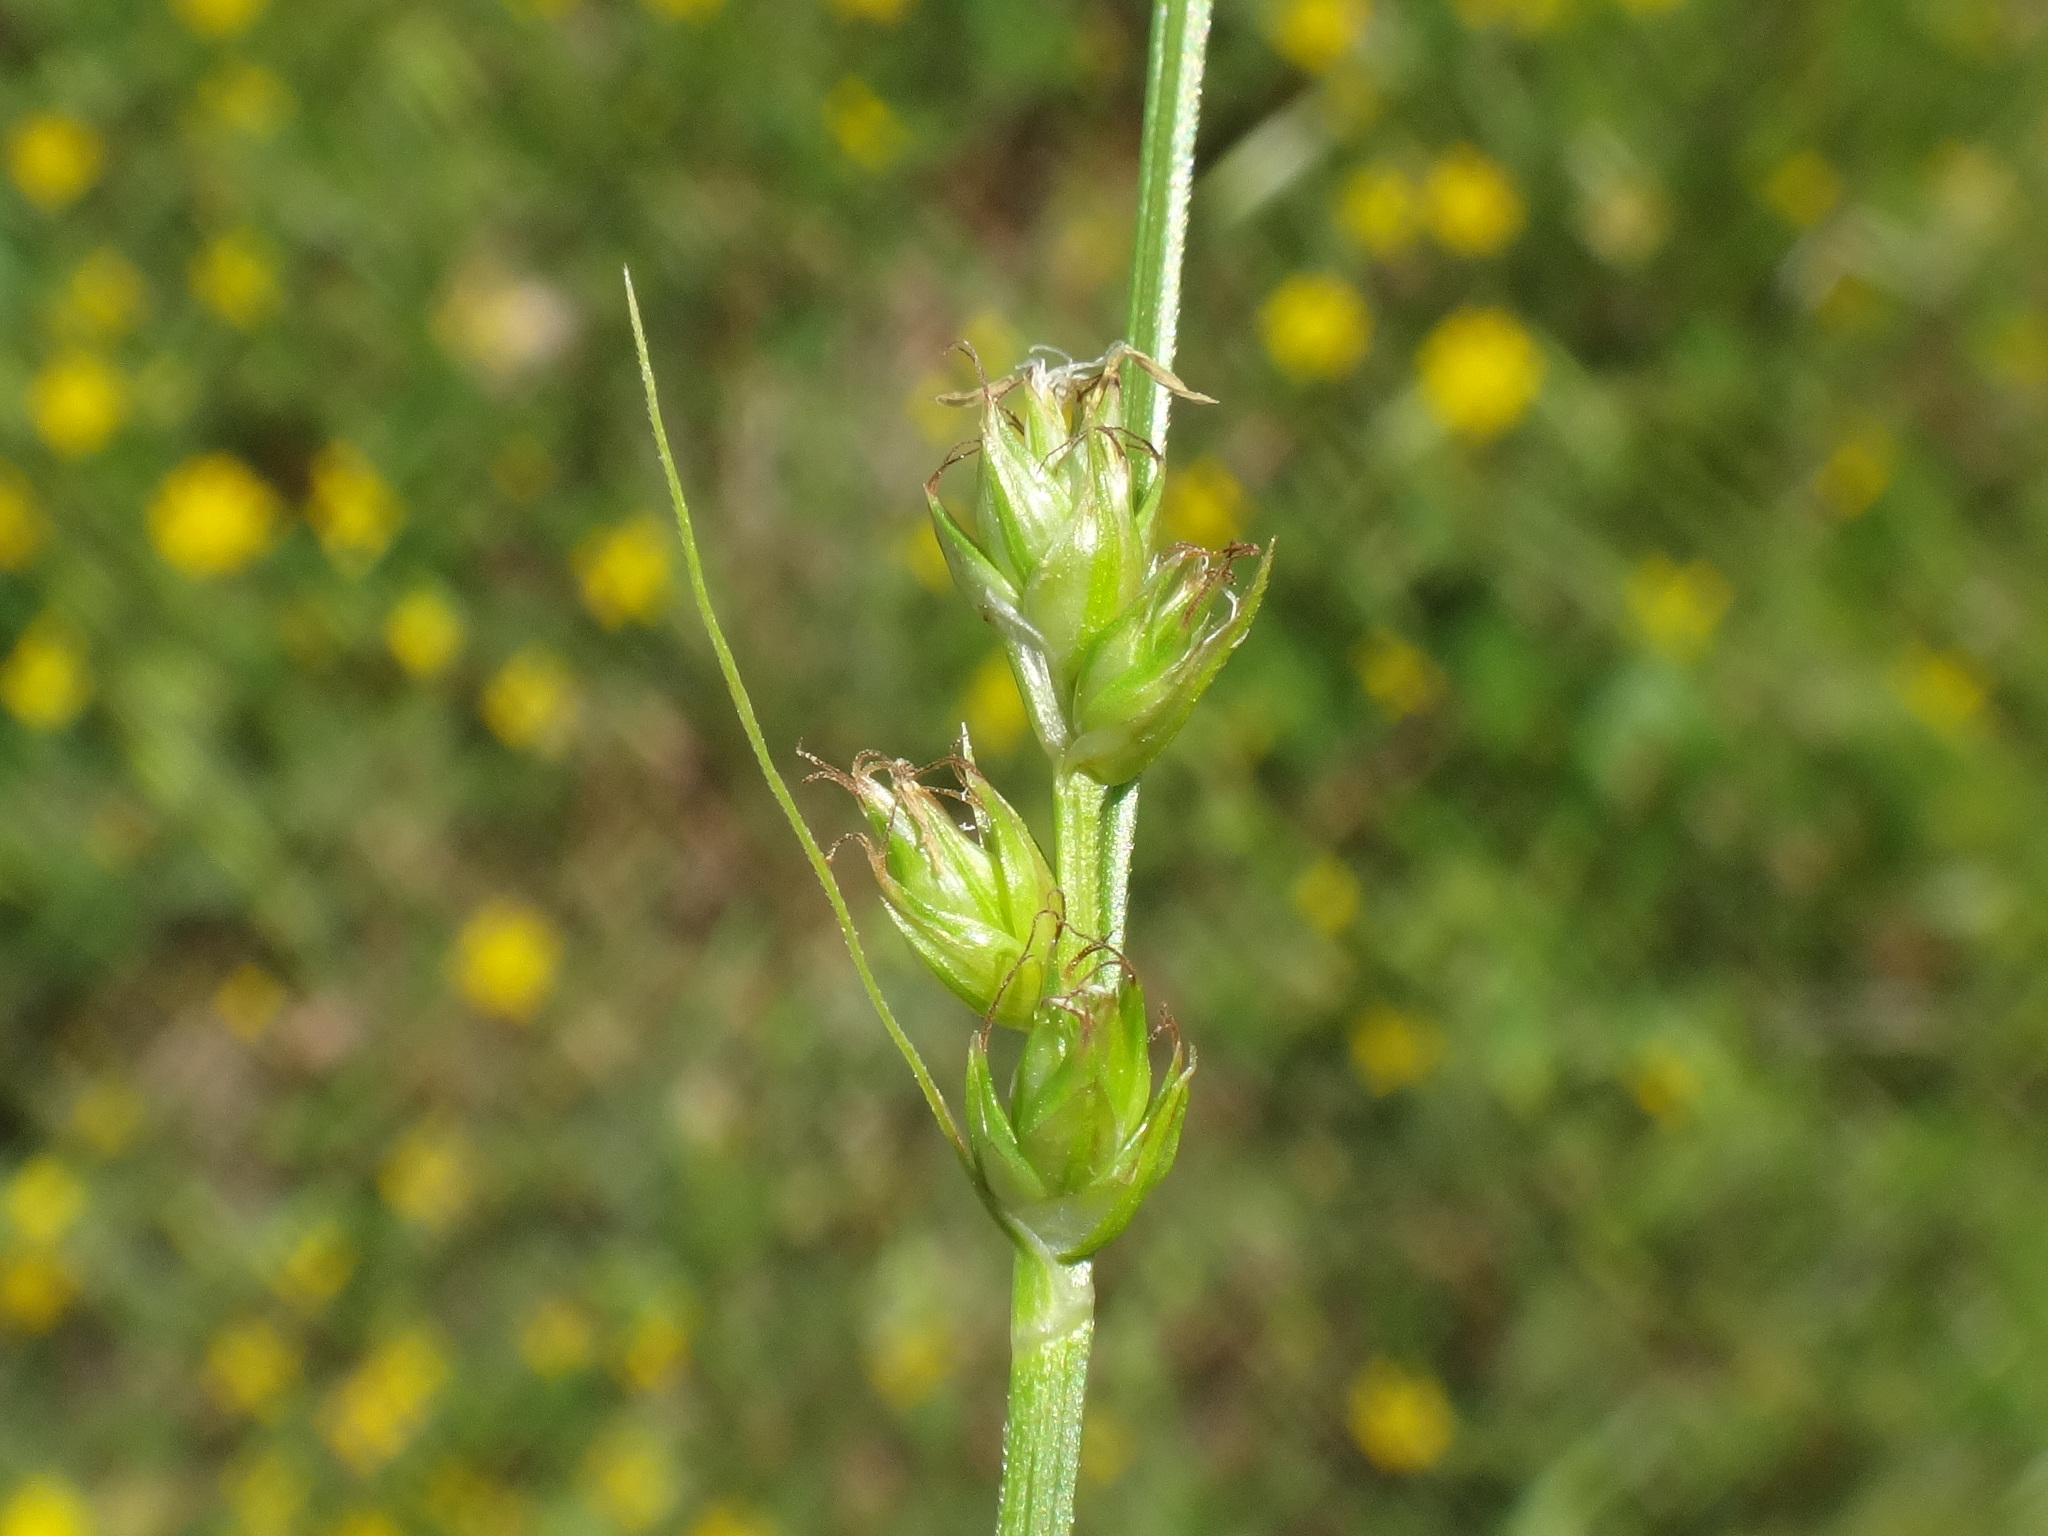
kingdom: Plantae
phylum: Tracheophyta
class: Liliopsida
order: Poales
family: Cyperaceae
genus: Carex
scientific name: Carex divulsa
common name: Grassland sedge
